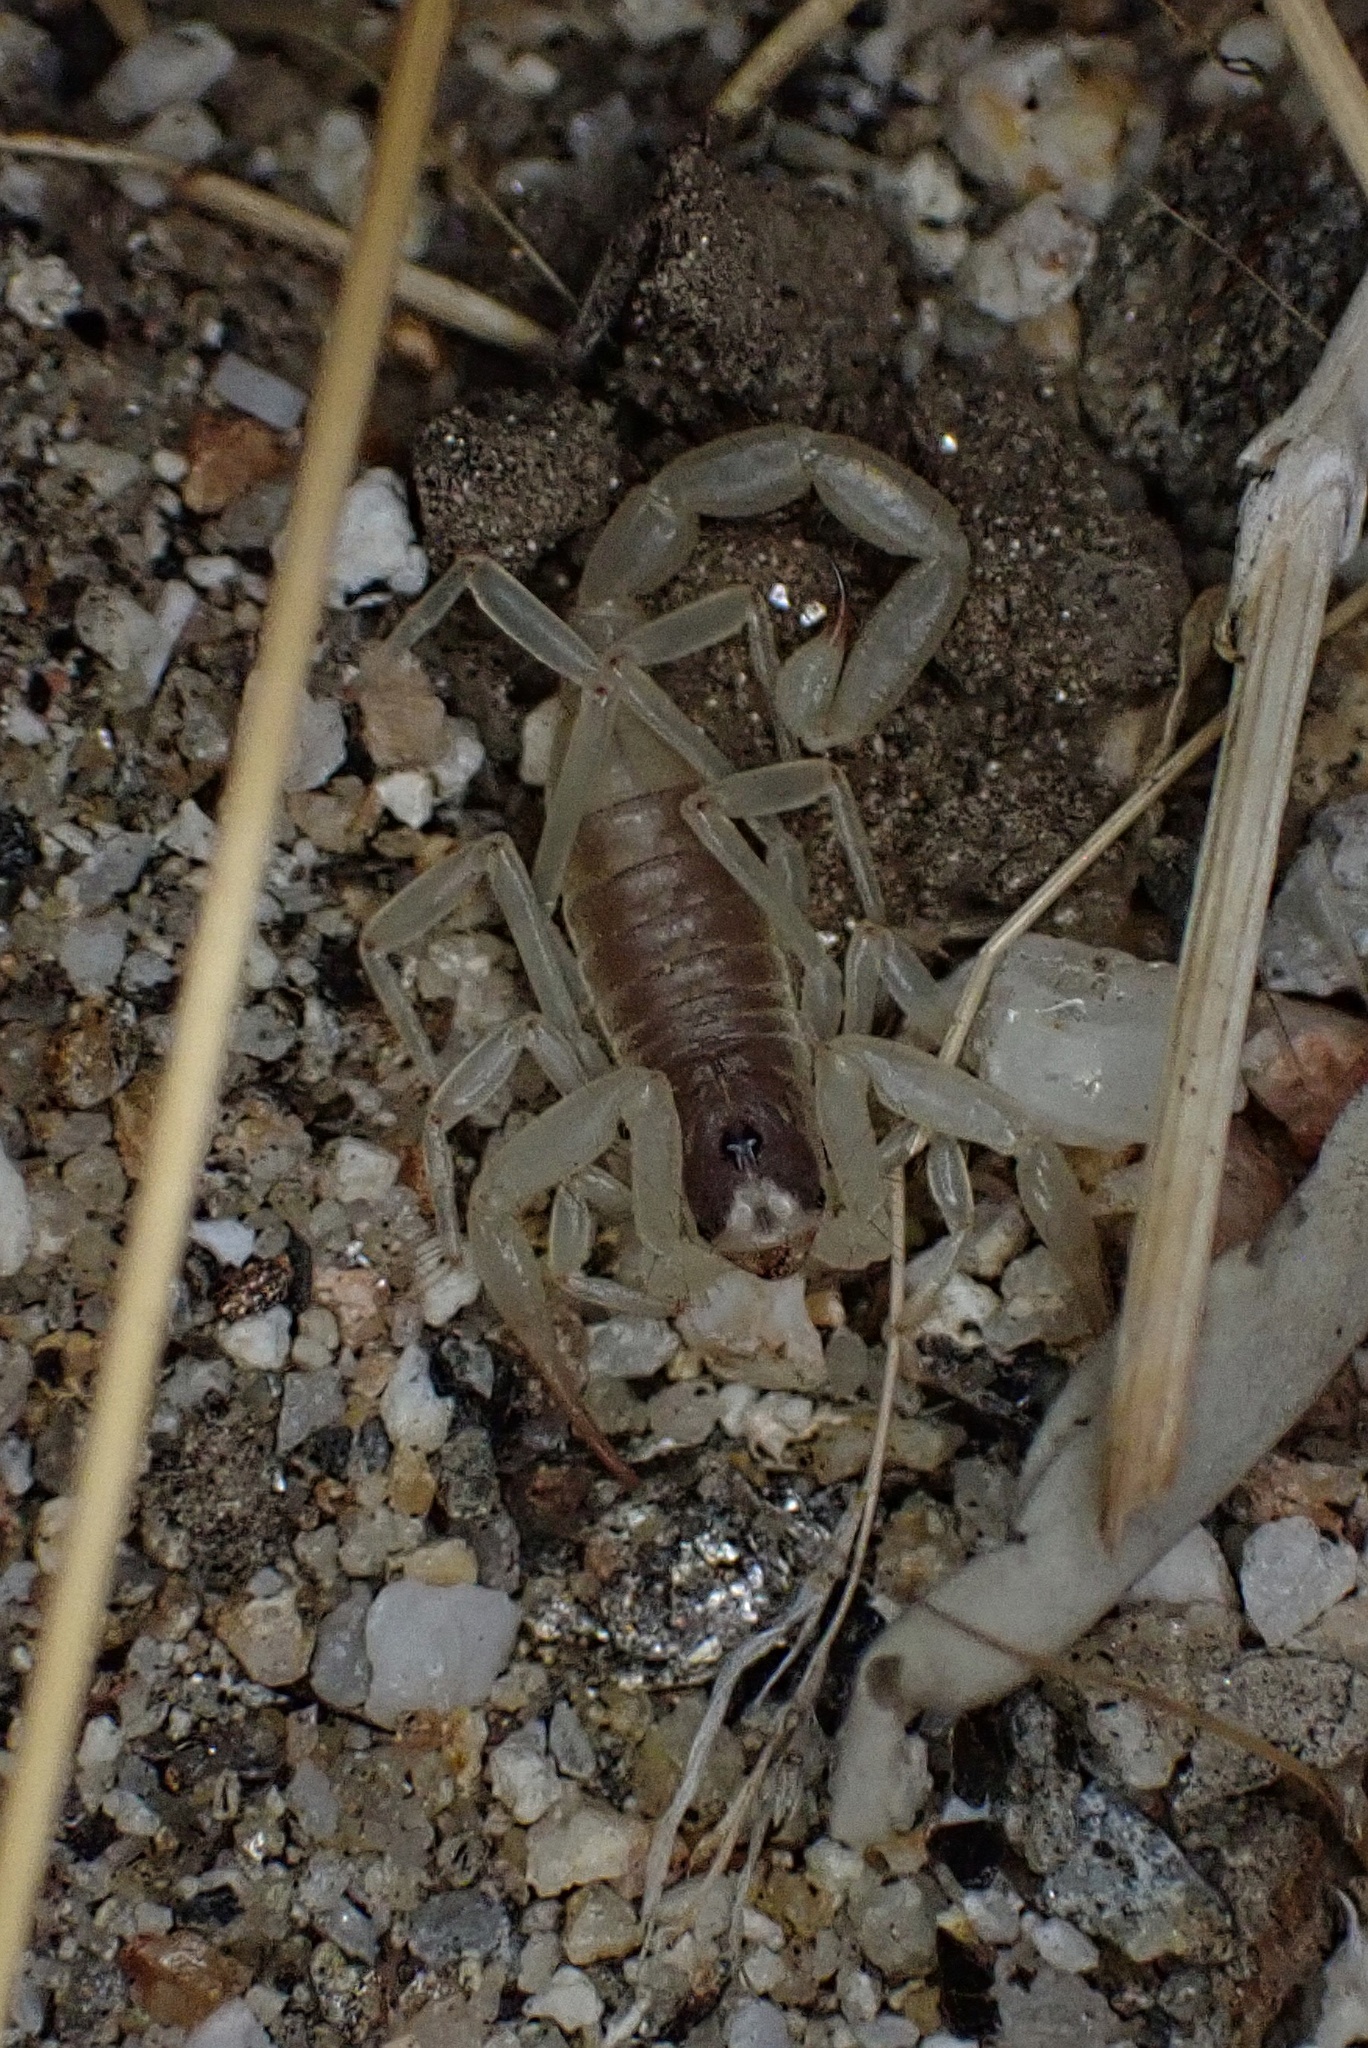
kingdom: Animalia
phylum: Arthropoda
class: Arachnida
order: Scorpiones
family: Hadruridae
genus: Hadrurus
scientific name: Hadrurus anzaborrego
